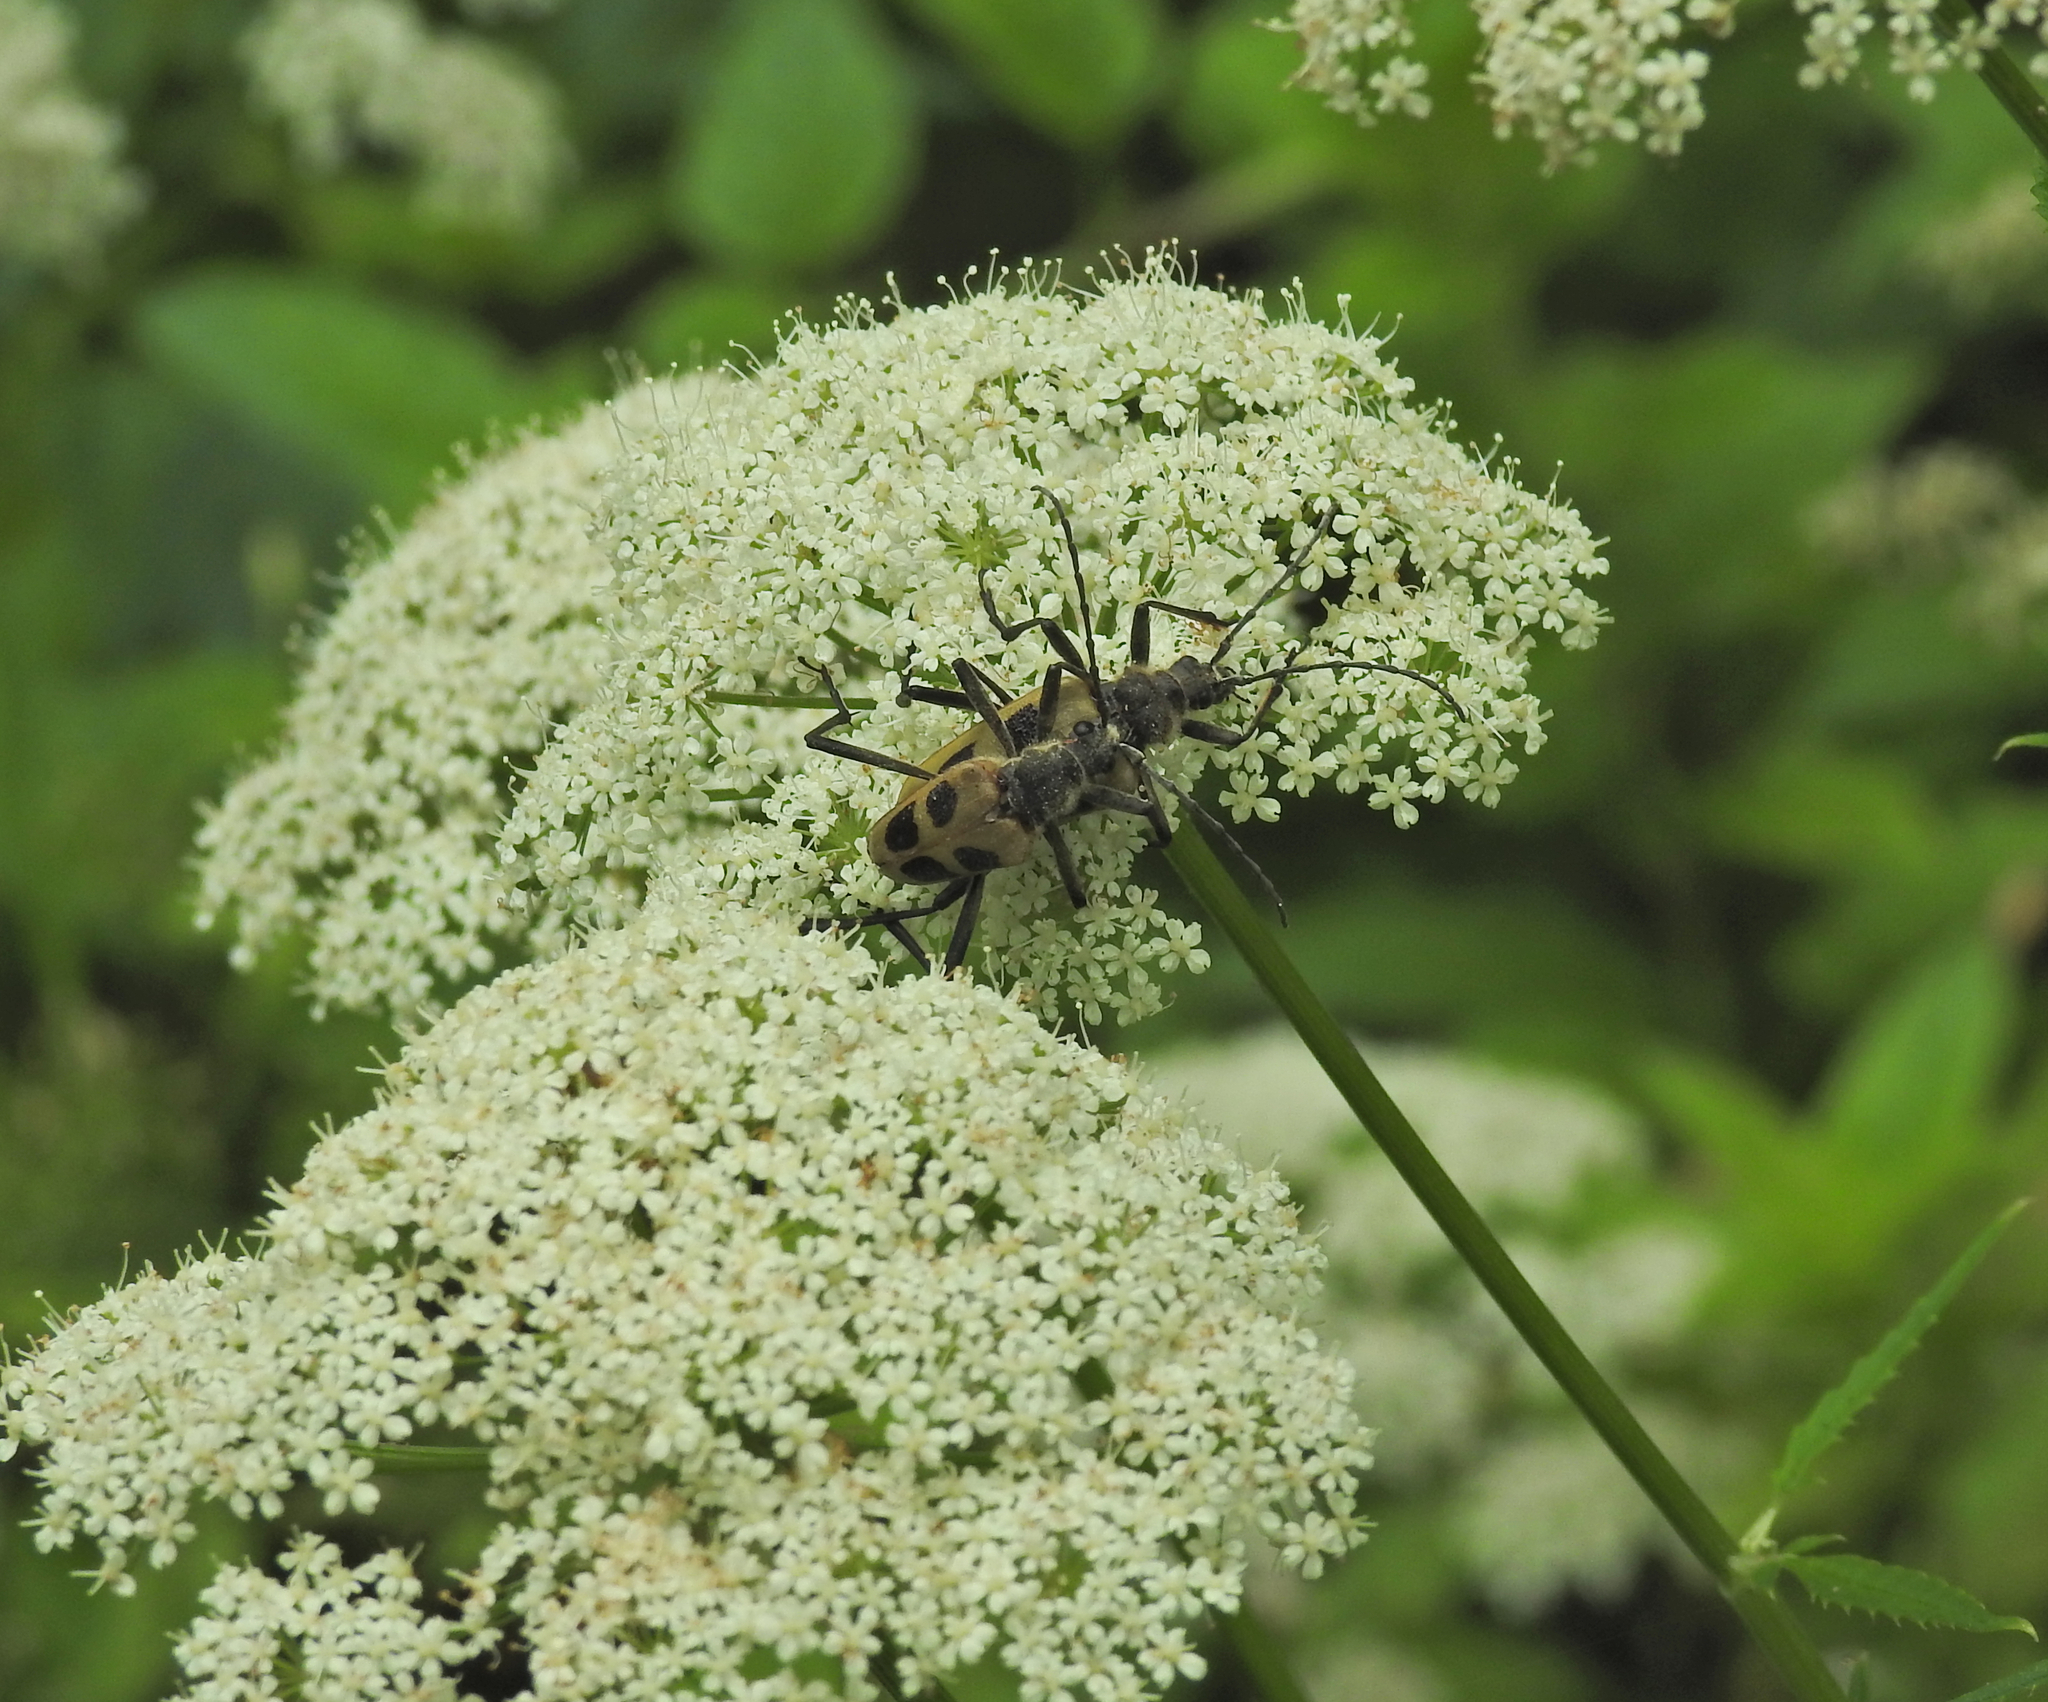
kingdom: Animalia
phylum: Arthropoda
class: Insecta
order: Coleoptera
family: Cerambycidae
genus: Pachyta
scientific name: Pachyta quadrimaculata
